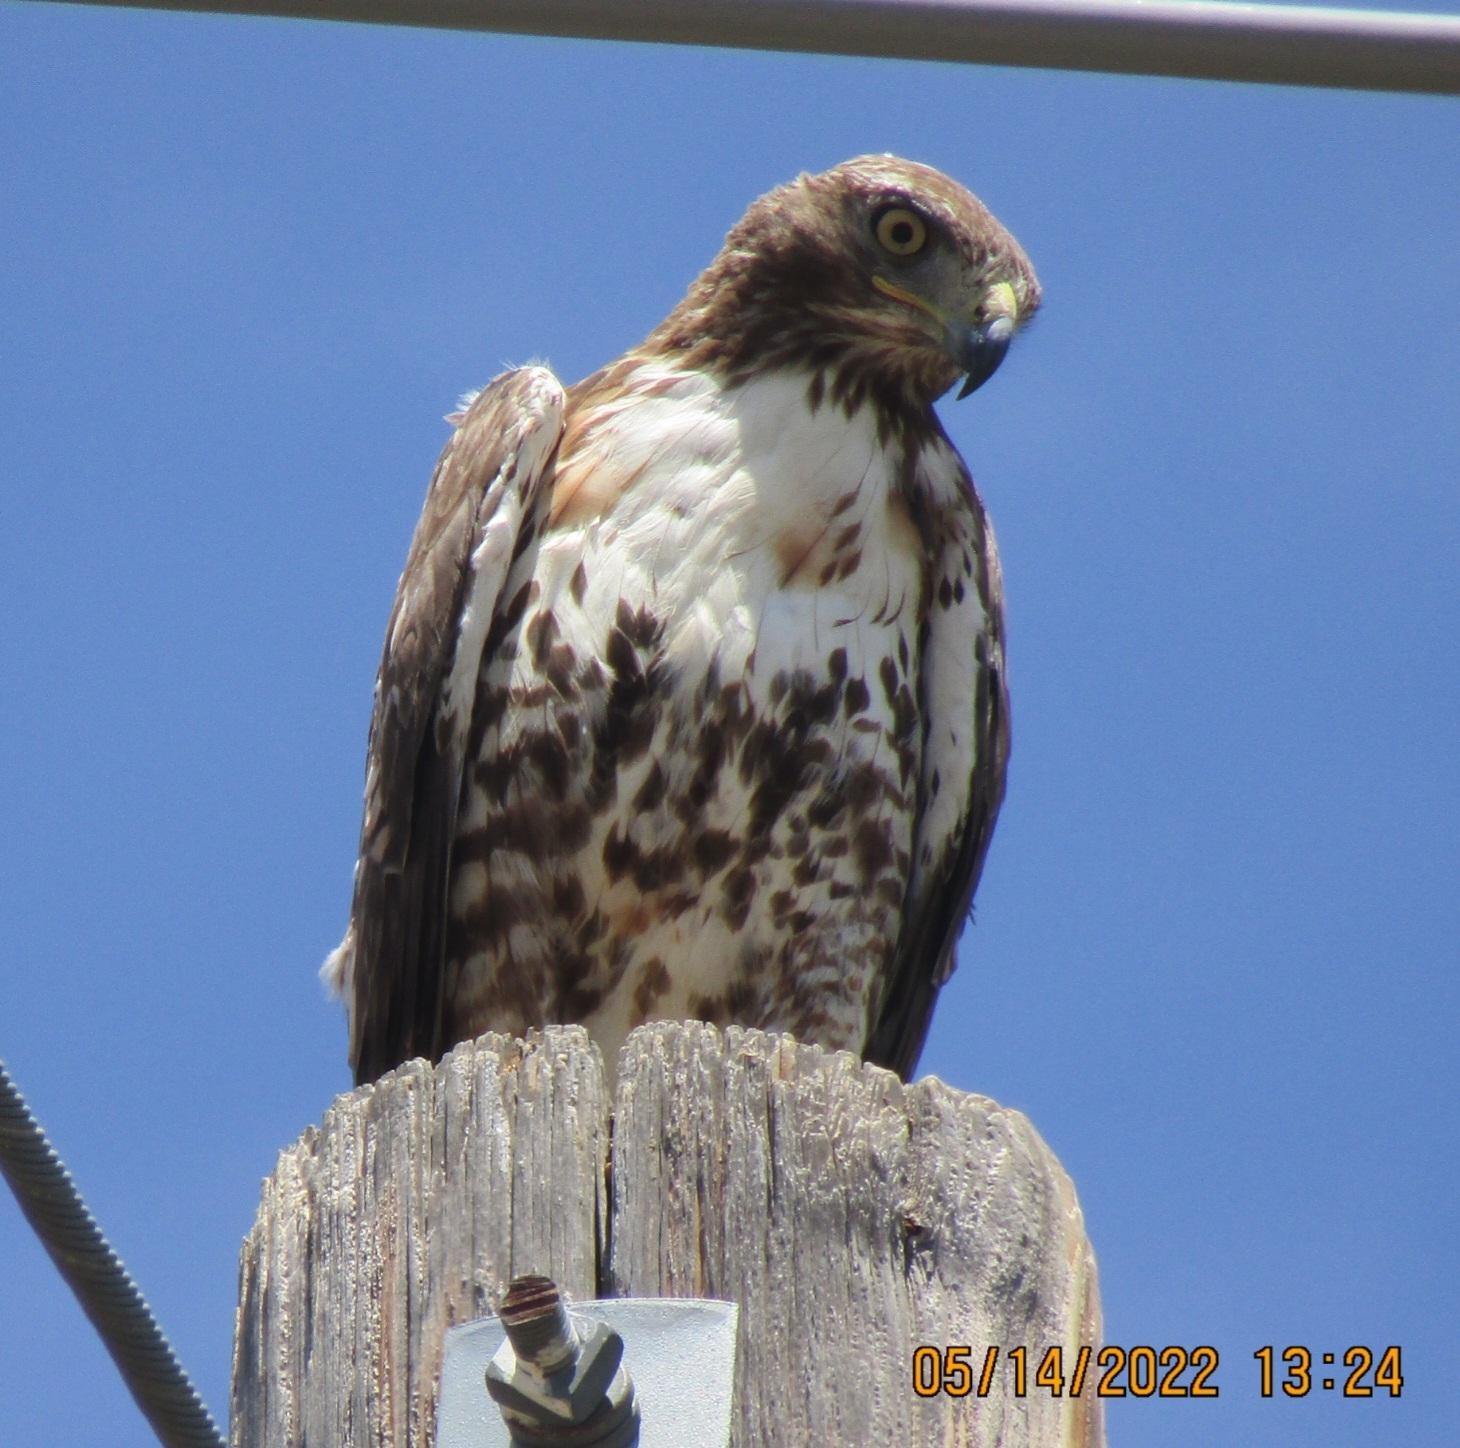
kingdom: Animalia
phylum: Chordata
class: Aves
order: Accipitriformes
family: Accipitridae
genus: Buteo
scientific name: Buteo jamaicensis
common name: Red-tailed hawk
